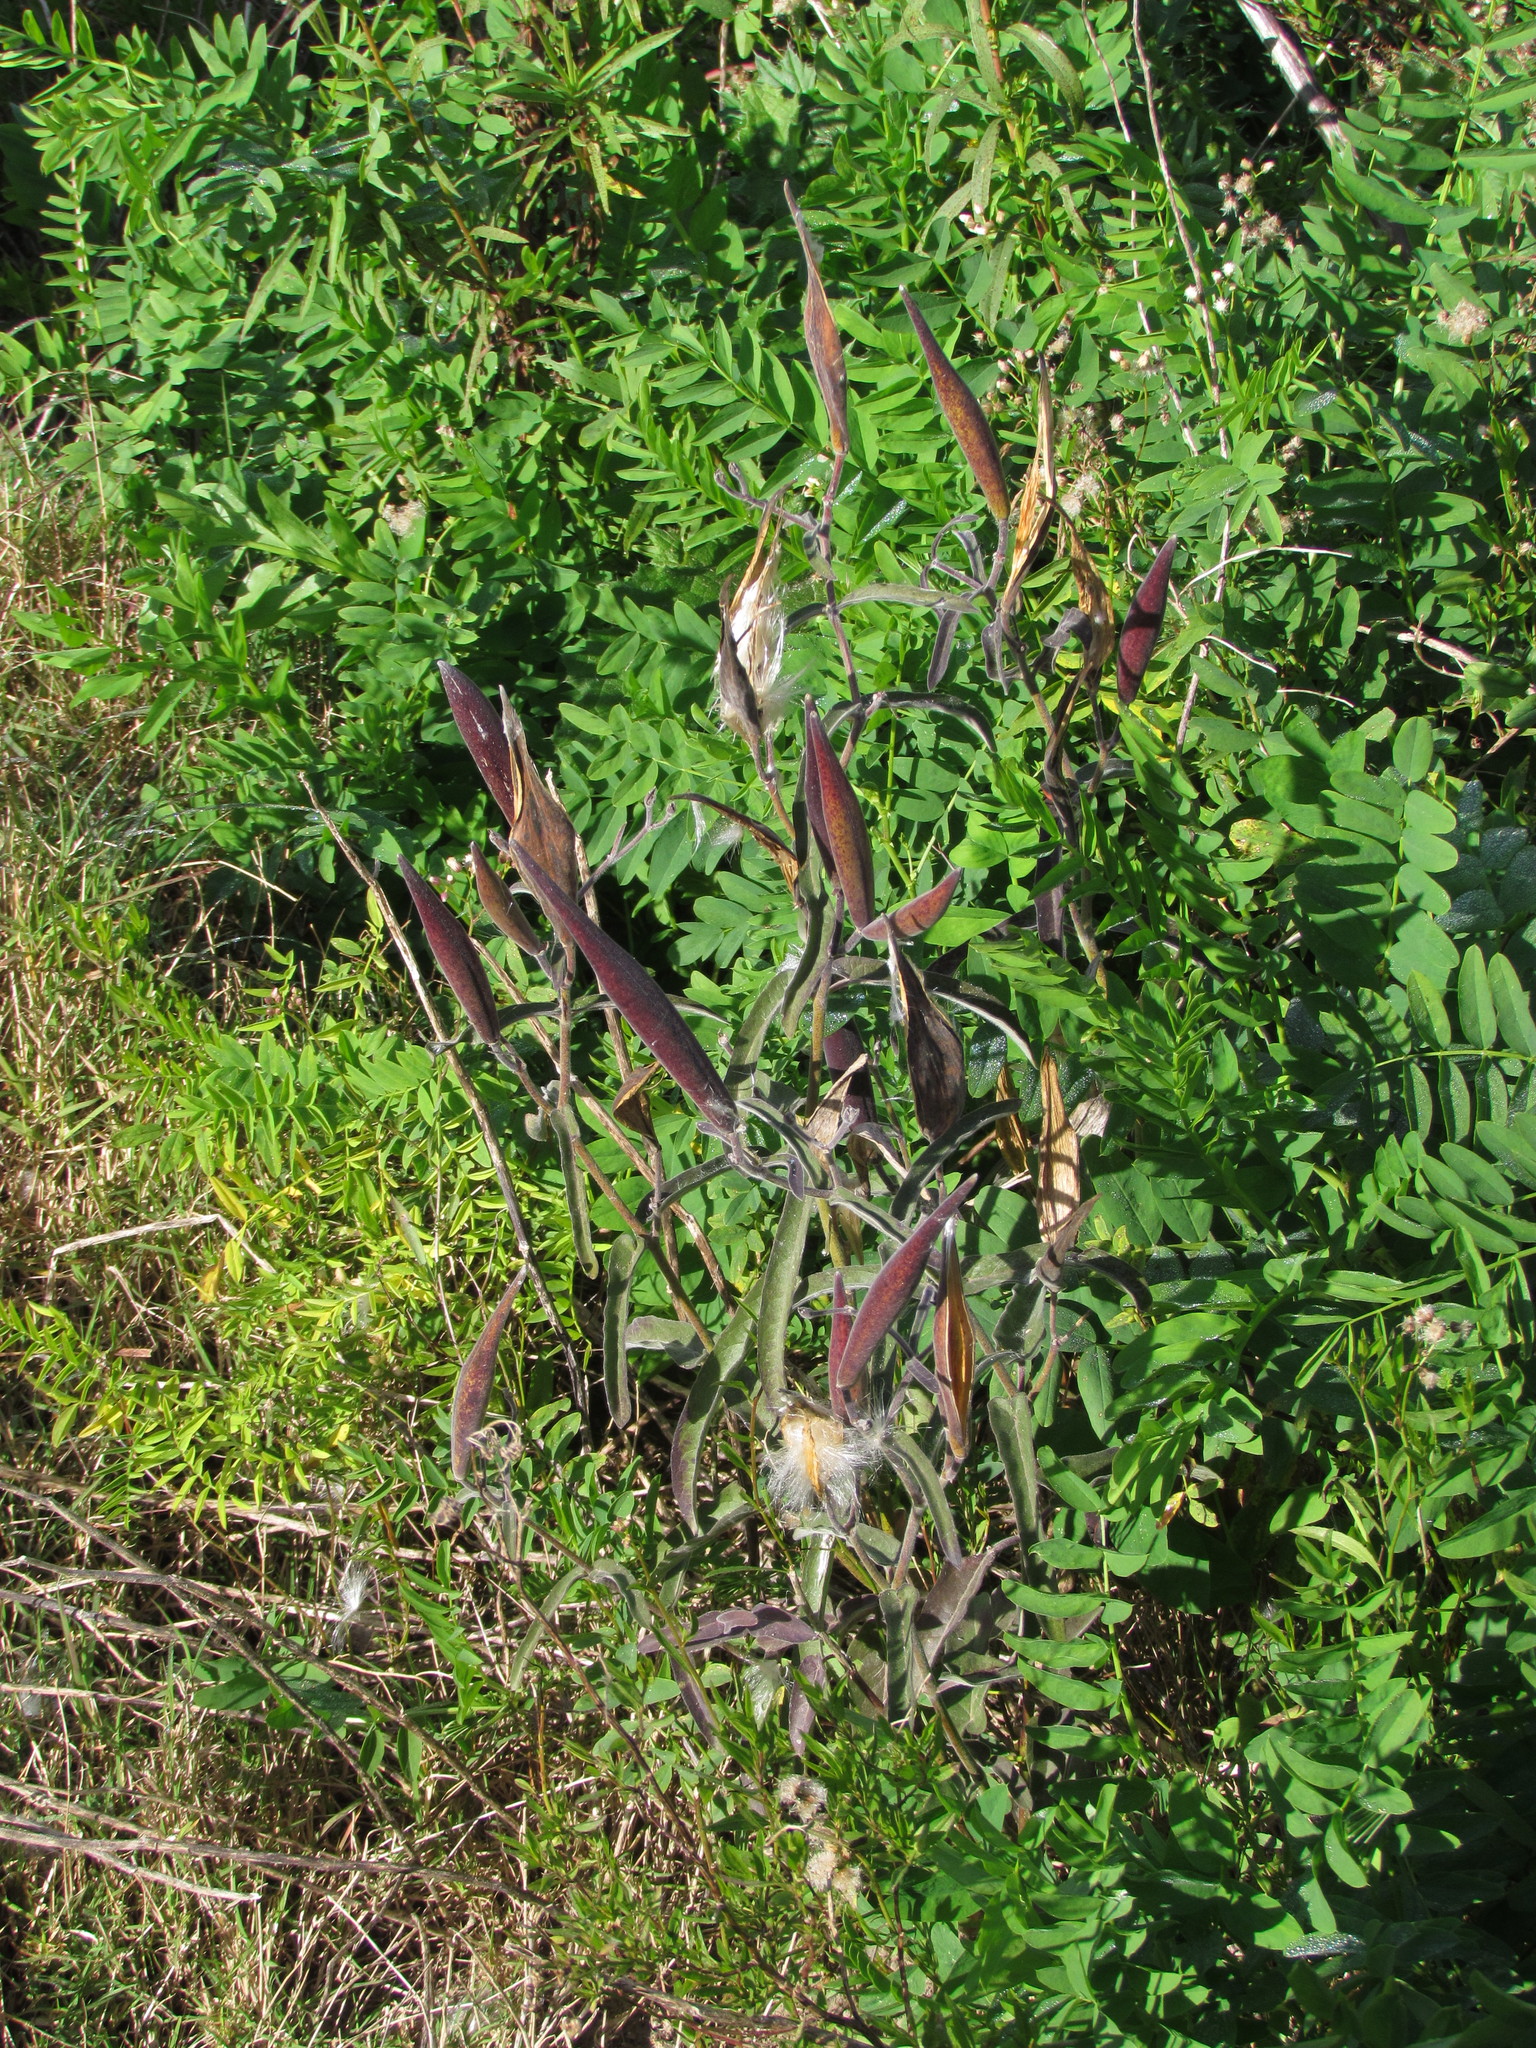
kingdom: Plantae
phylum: Tracheophyta
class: Magnoliopsida
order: Gentianales
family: Apocynaceae
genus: Oxypetalum
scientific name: Oxypetalum solanoides
